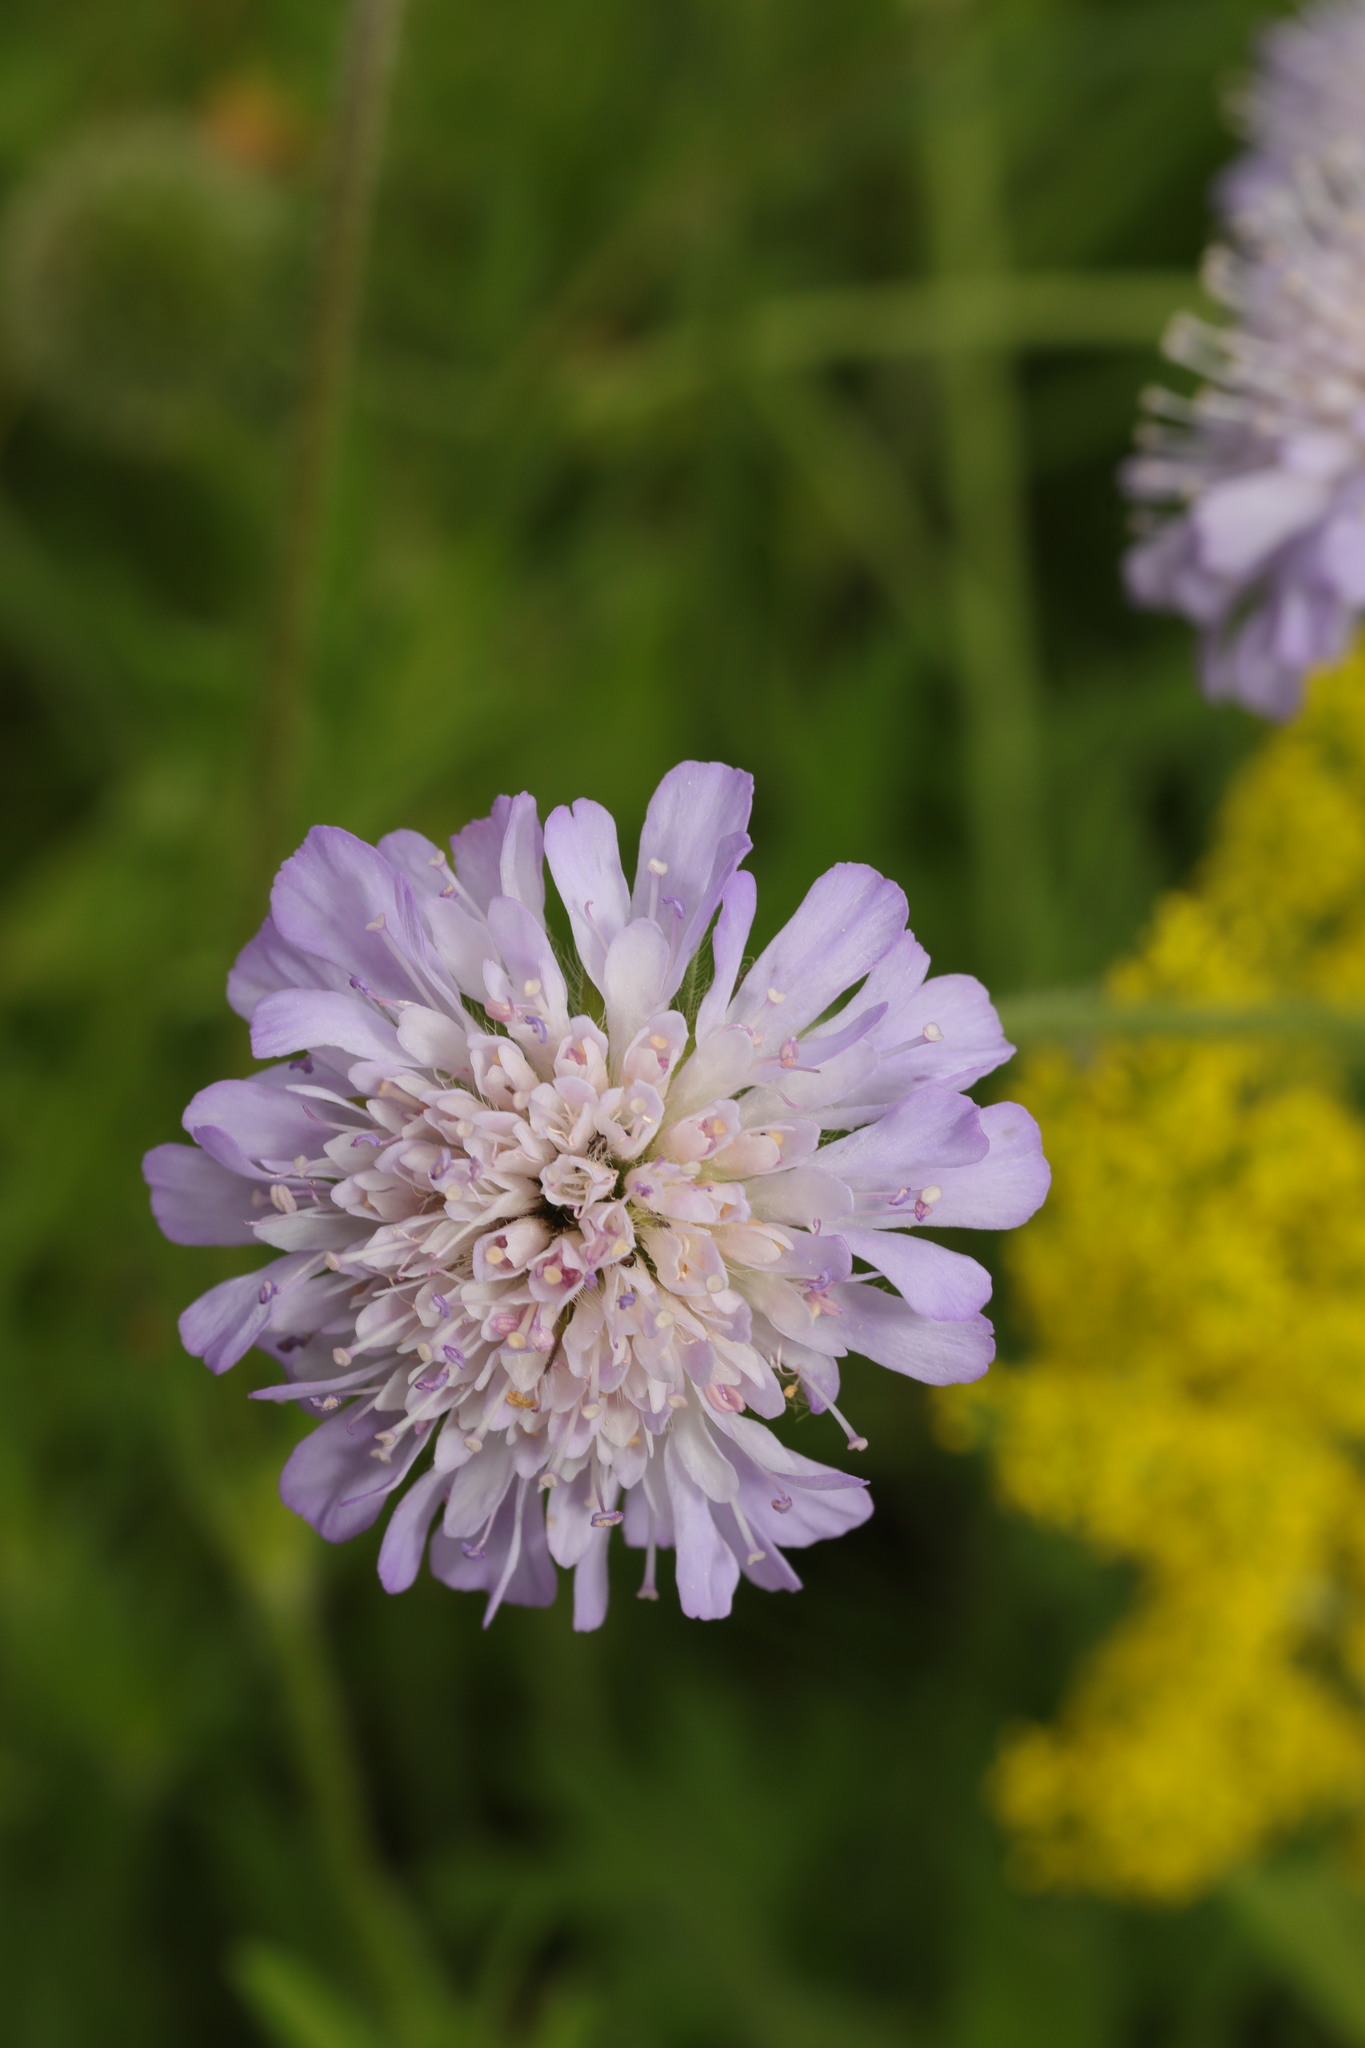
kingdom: Plantae
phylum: Tracheophyta
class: Magnoliopsida
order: Dipsacales
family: Caprifoliaceae
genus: Knautia
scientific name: Knautia arvensis
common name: Field scabiosa
